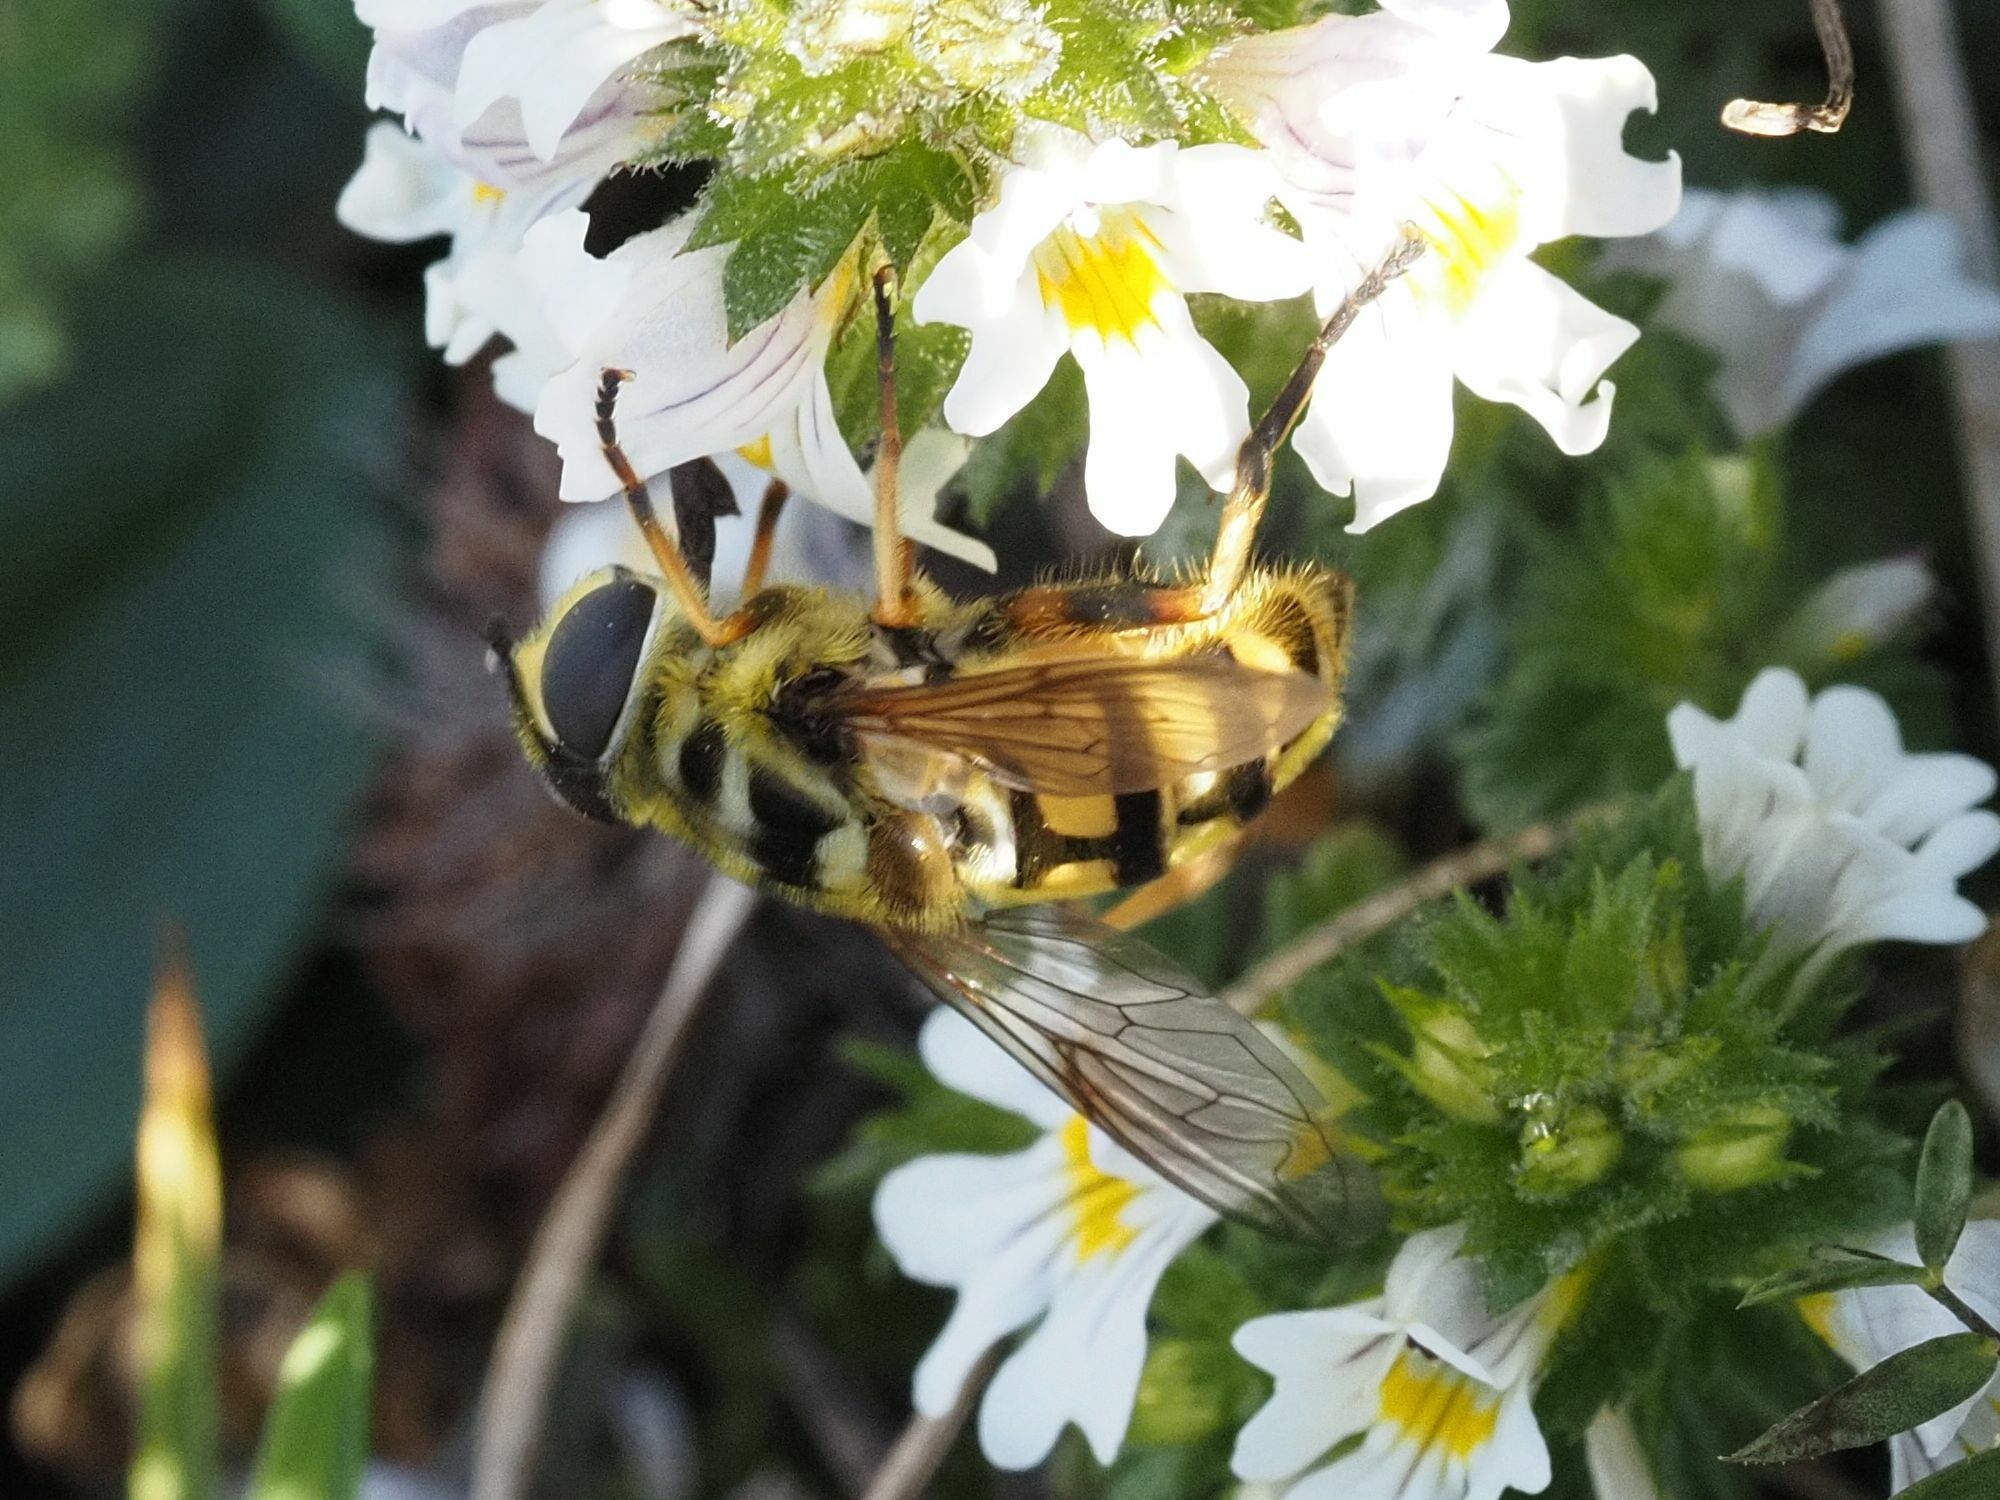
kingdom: Animalia
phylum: Arthropoda
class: Insecta
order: Diptera
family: Syrphidae
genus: Myathropa
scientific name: Myathropa florea
